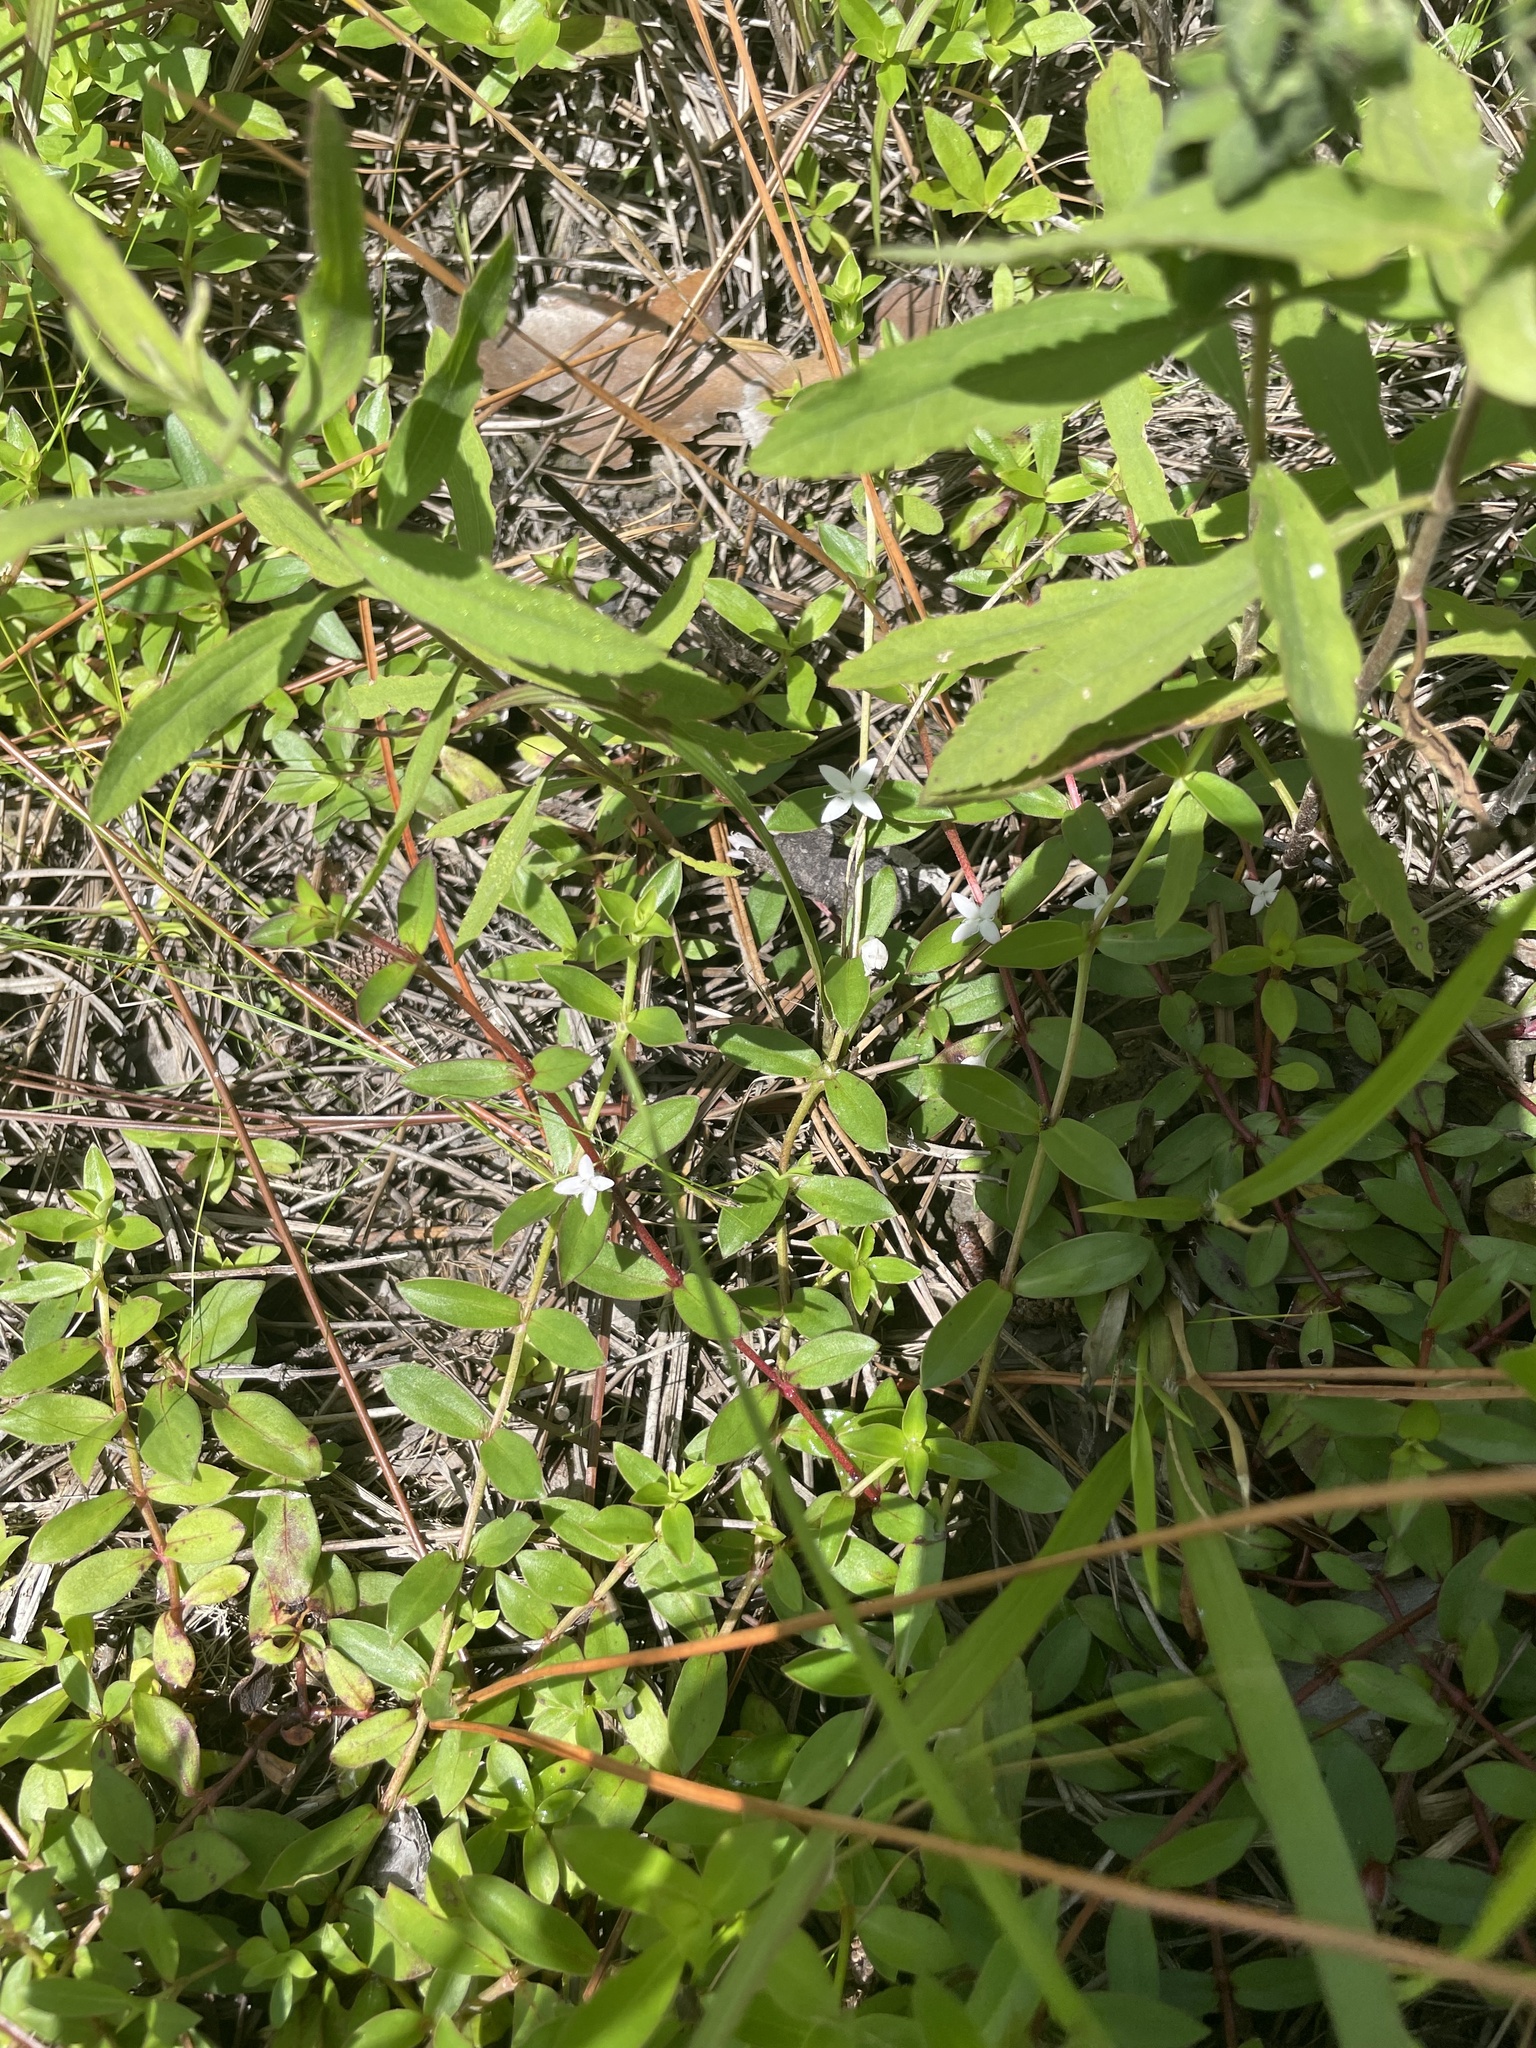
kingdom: Plantae
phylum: Tracheophyta
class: Magnoliopsida
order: Gentianales
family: Rubiaceae
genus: Diodia
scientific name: Diodia virginiana
